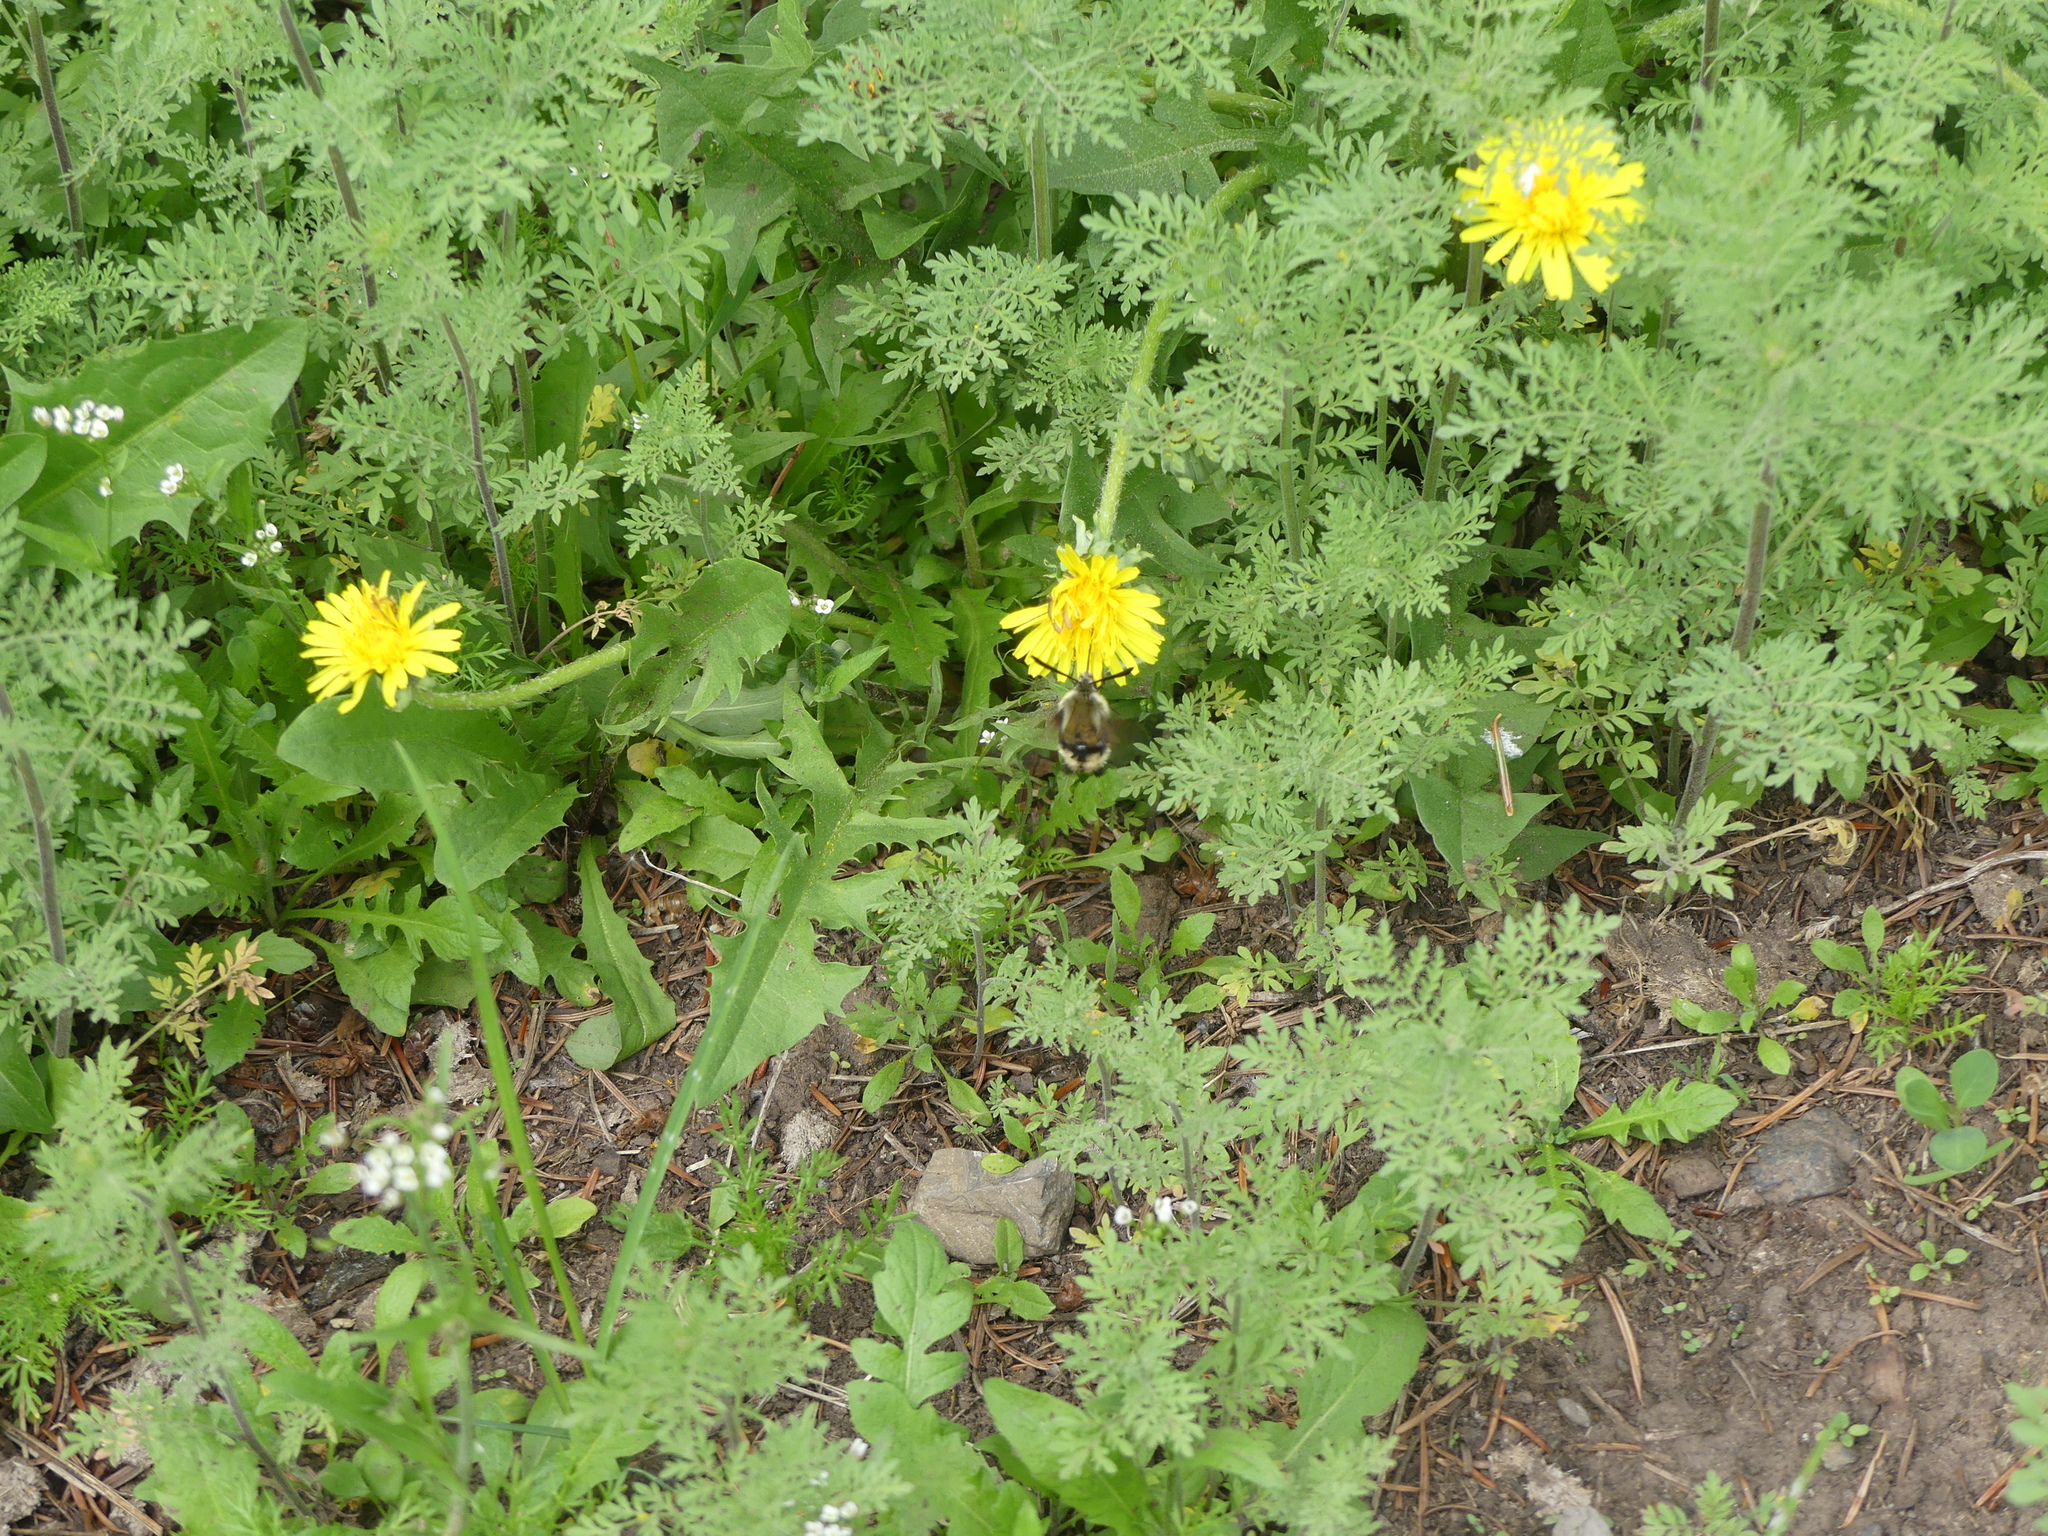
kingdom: Animalia
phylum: Arthropoda
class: Insecta
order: Lepidoptera
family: Sphingidae
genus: Hemaris
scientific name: Hemaris thetis
